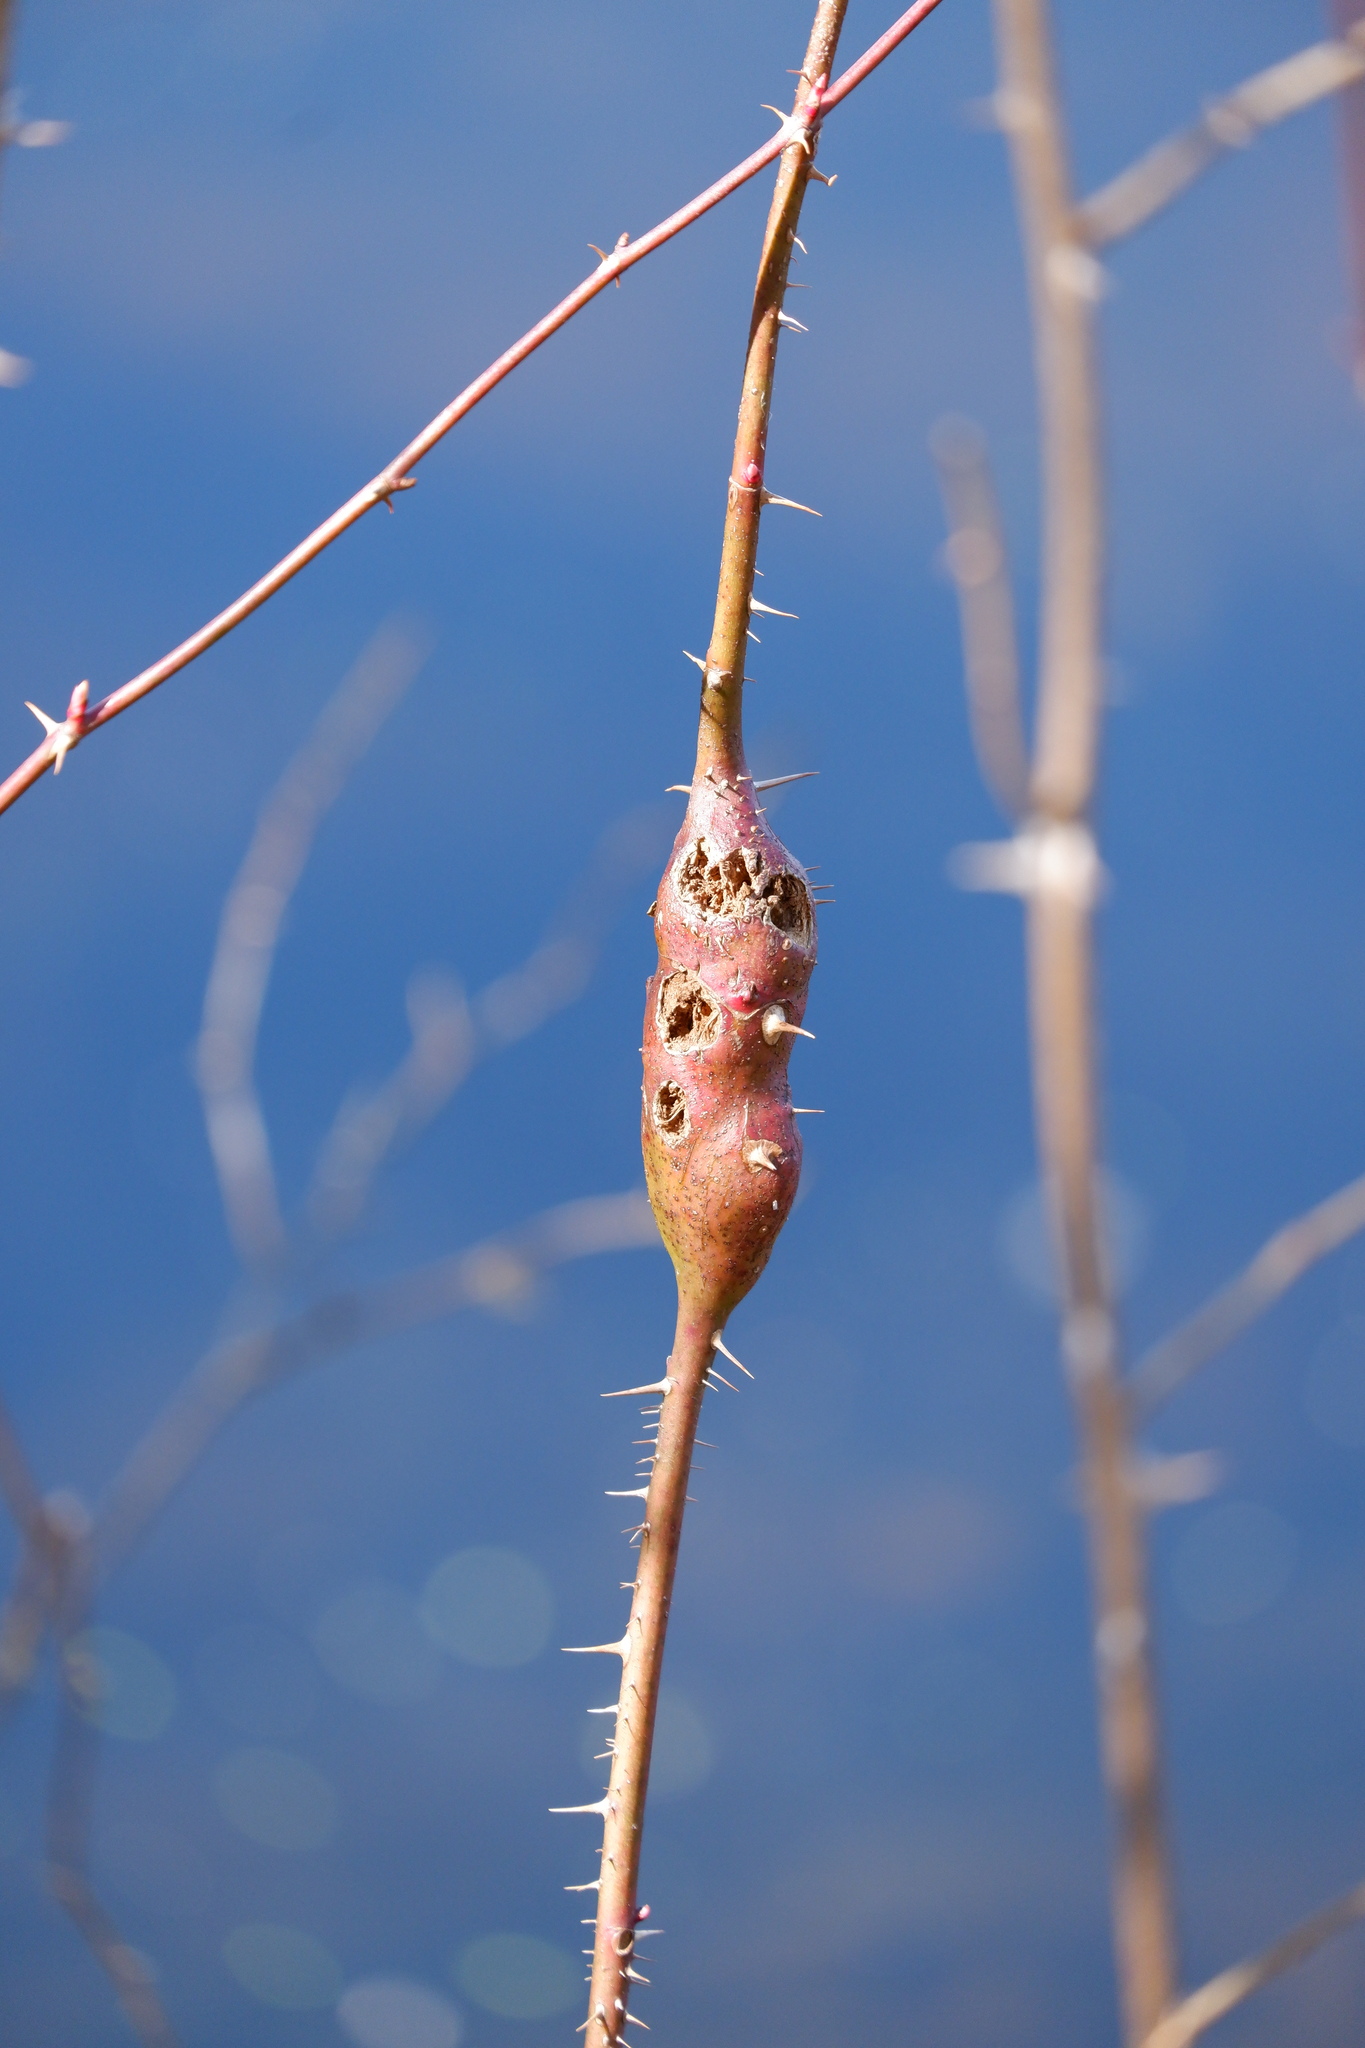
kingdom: Animalia
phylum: Arthropoda
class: Insecta
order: Hymenoptera
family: Cynipidae
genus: Diplolepis
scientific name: Diplolepis
